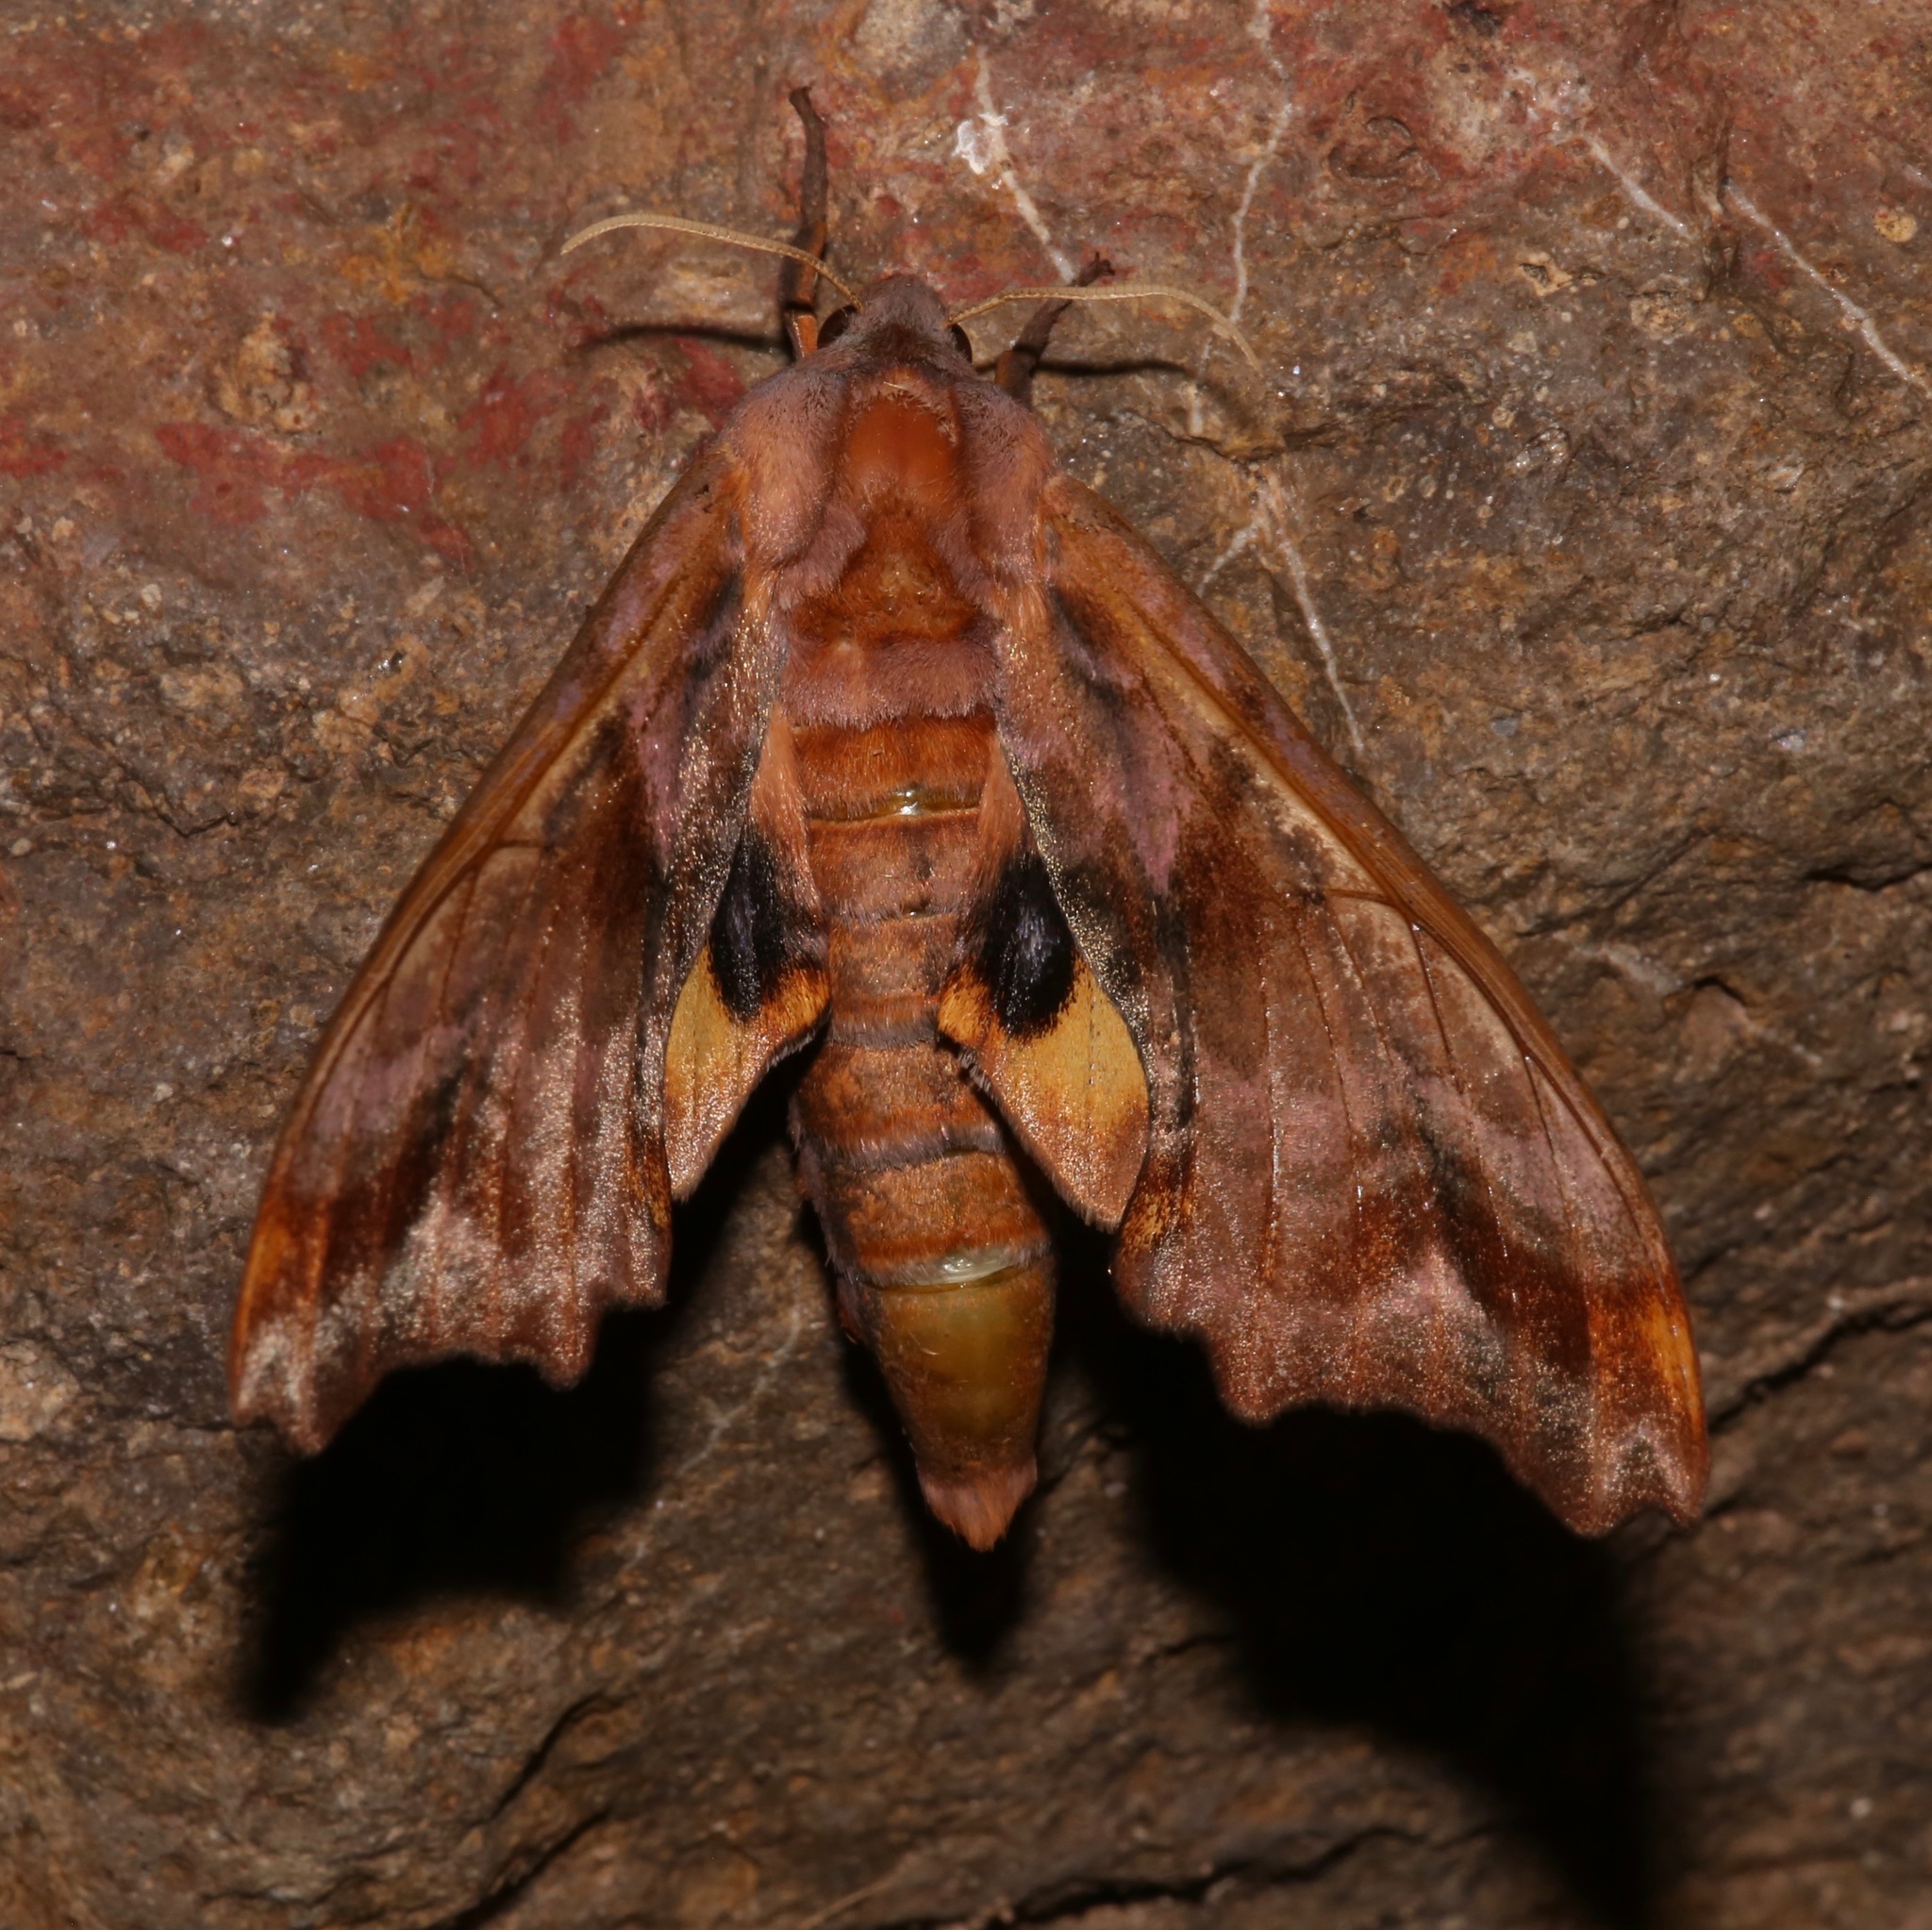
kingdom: Animalia
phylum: Arthropoda
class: Insecta
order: Lepidoptera
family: Sphingidae
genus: Paonias
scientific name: Paonias myops
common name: Small-eyed sphinx
